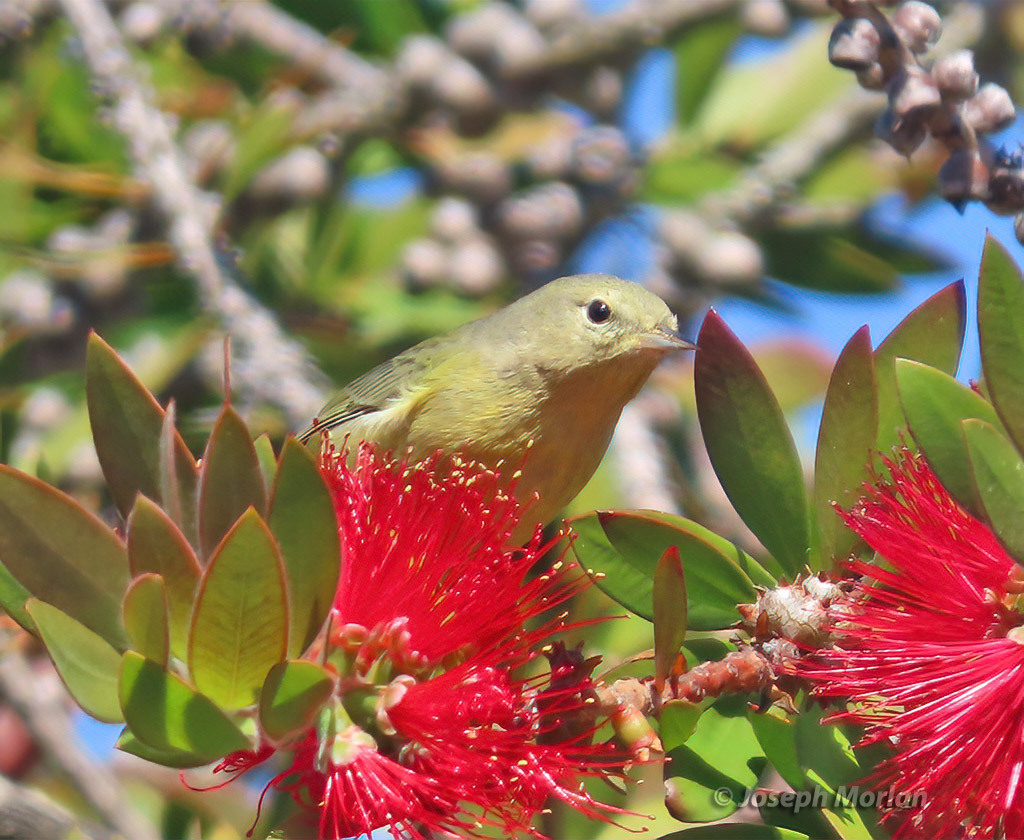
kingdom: Animalia
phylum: Chordata
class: Aves
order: Passeriformes
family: Parulidae
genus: Leiothlypis
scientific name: Leiothlypis celata
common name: Orange-crowned warbler
